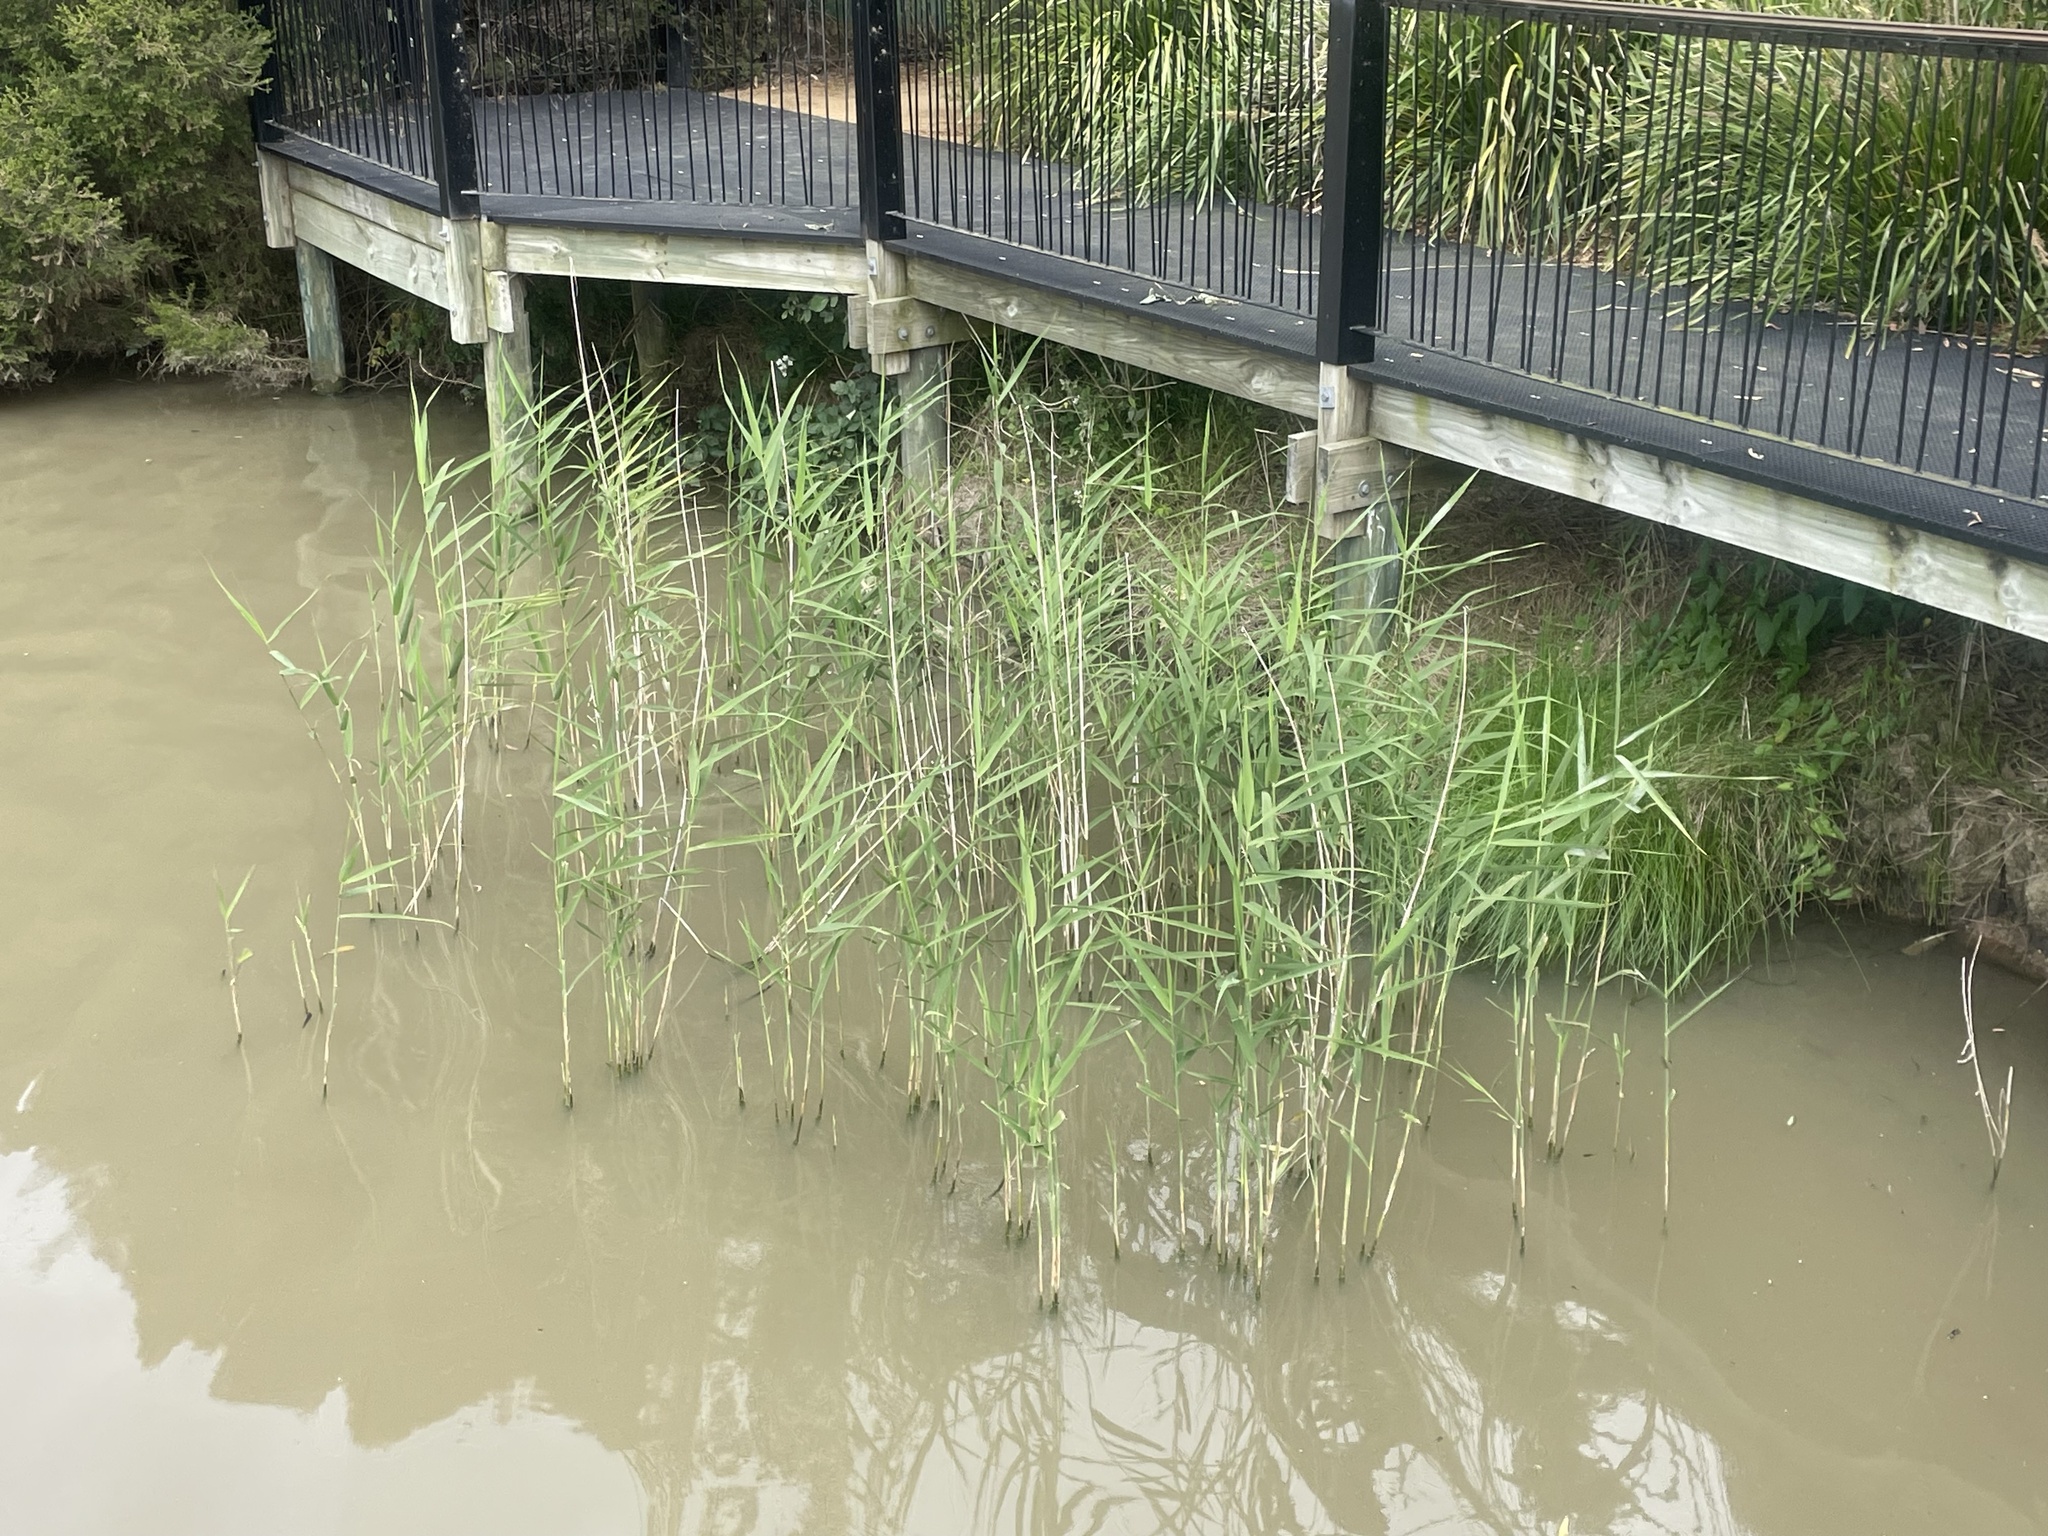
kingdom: Plantae
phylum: Tracheophyta
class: Liliopsida
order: Poales
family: Poaceae
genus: Phragmites
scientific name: Phragmites australis
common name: Common reed
